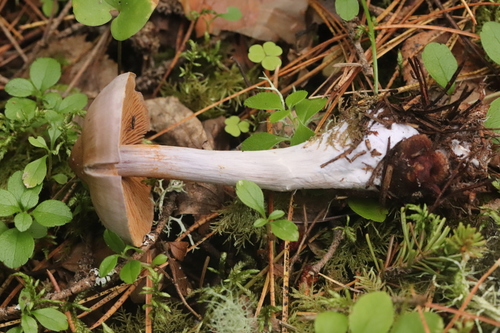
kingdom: Fungi
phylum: Basidiomycota
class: Agaricomycetes
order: Agaricales
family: Cortinariaceae
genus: Cortinarius
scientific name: Cortinarius
